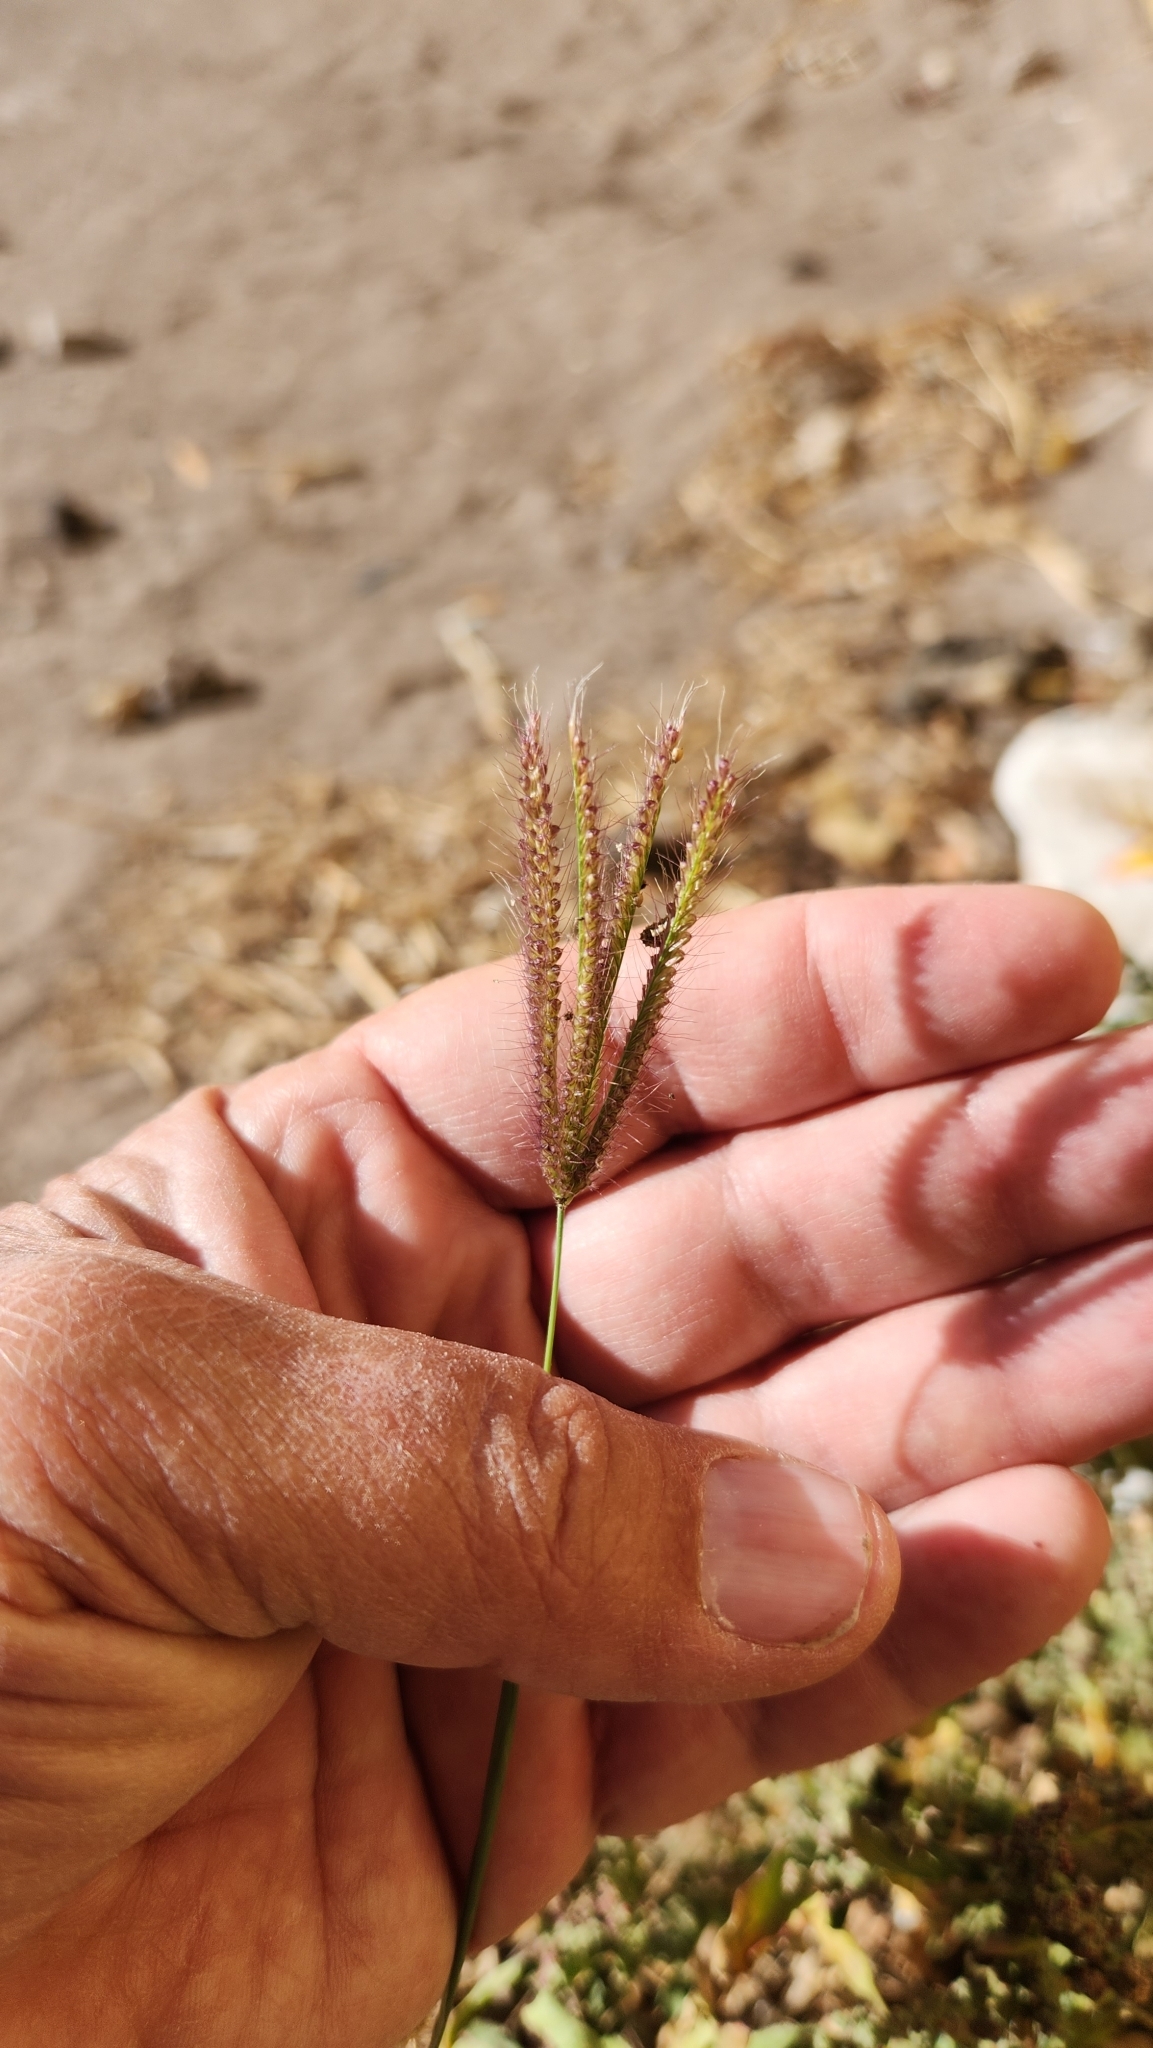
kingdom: Plantae
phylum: Tracheophyta
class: Liliopsida
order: Poales
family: Poaceae
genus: Chloris
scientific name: Chloris barbata
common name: Swollen fingergrass
